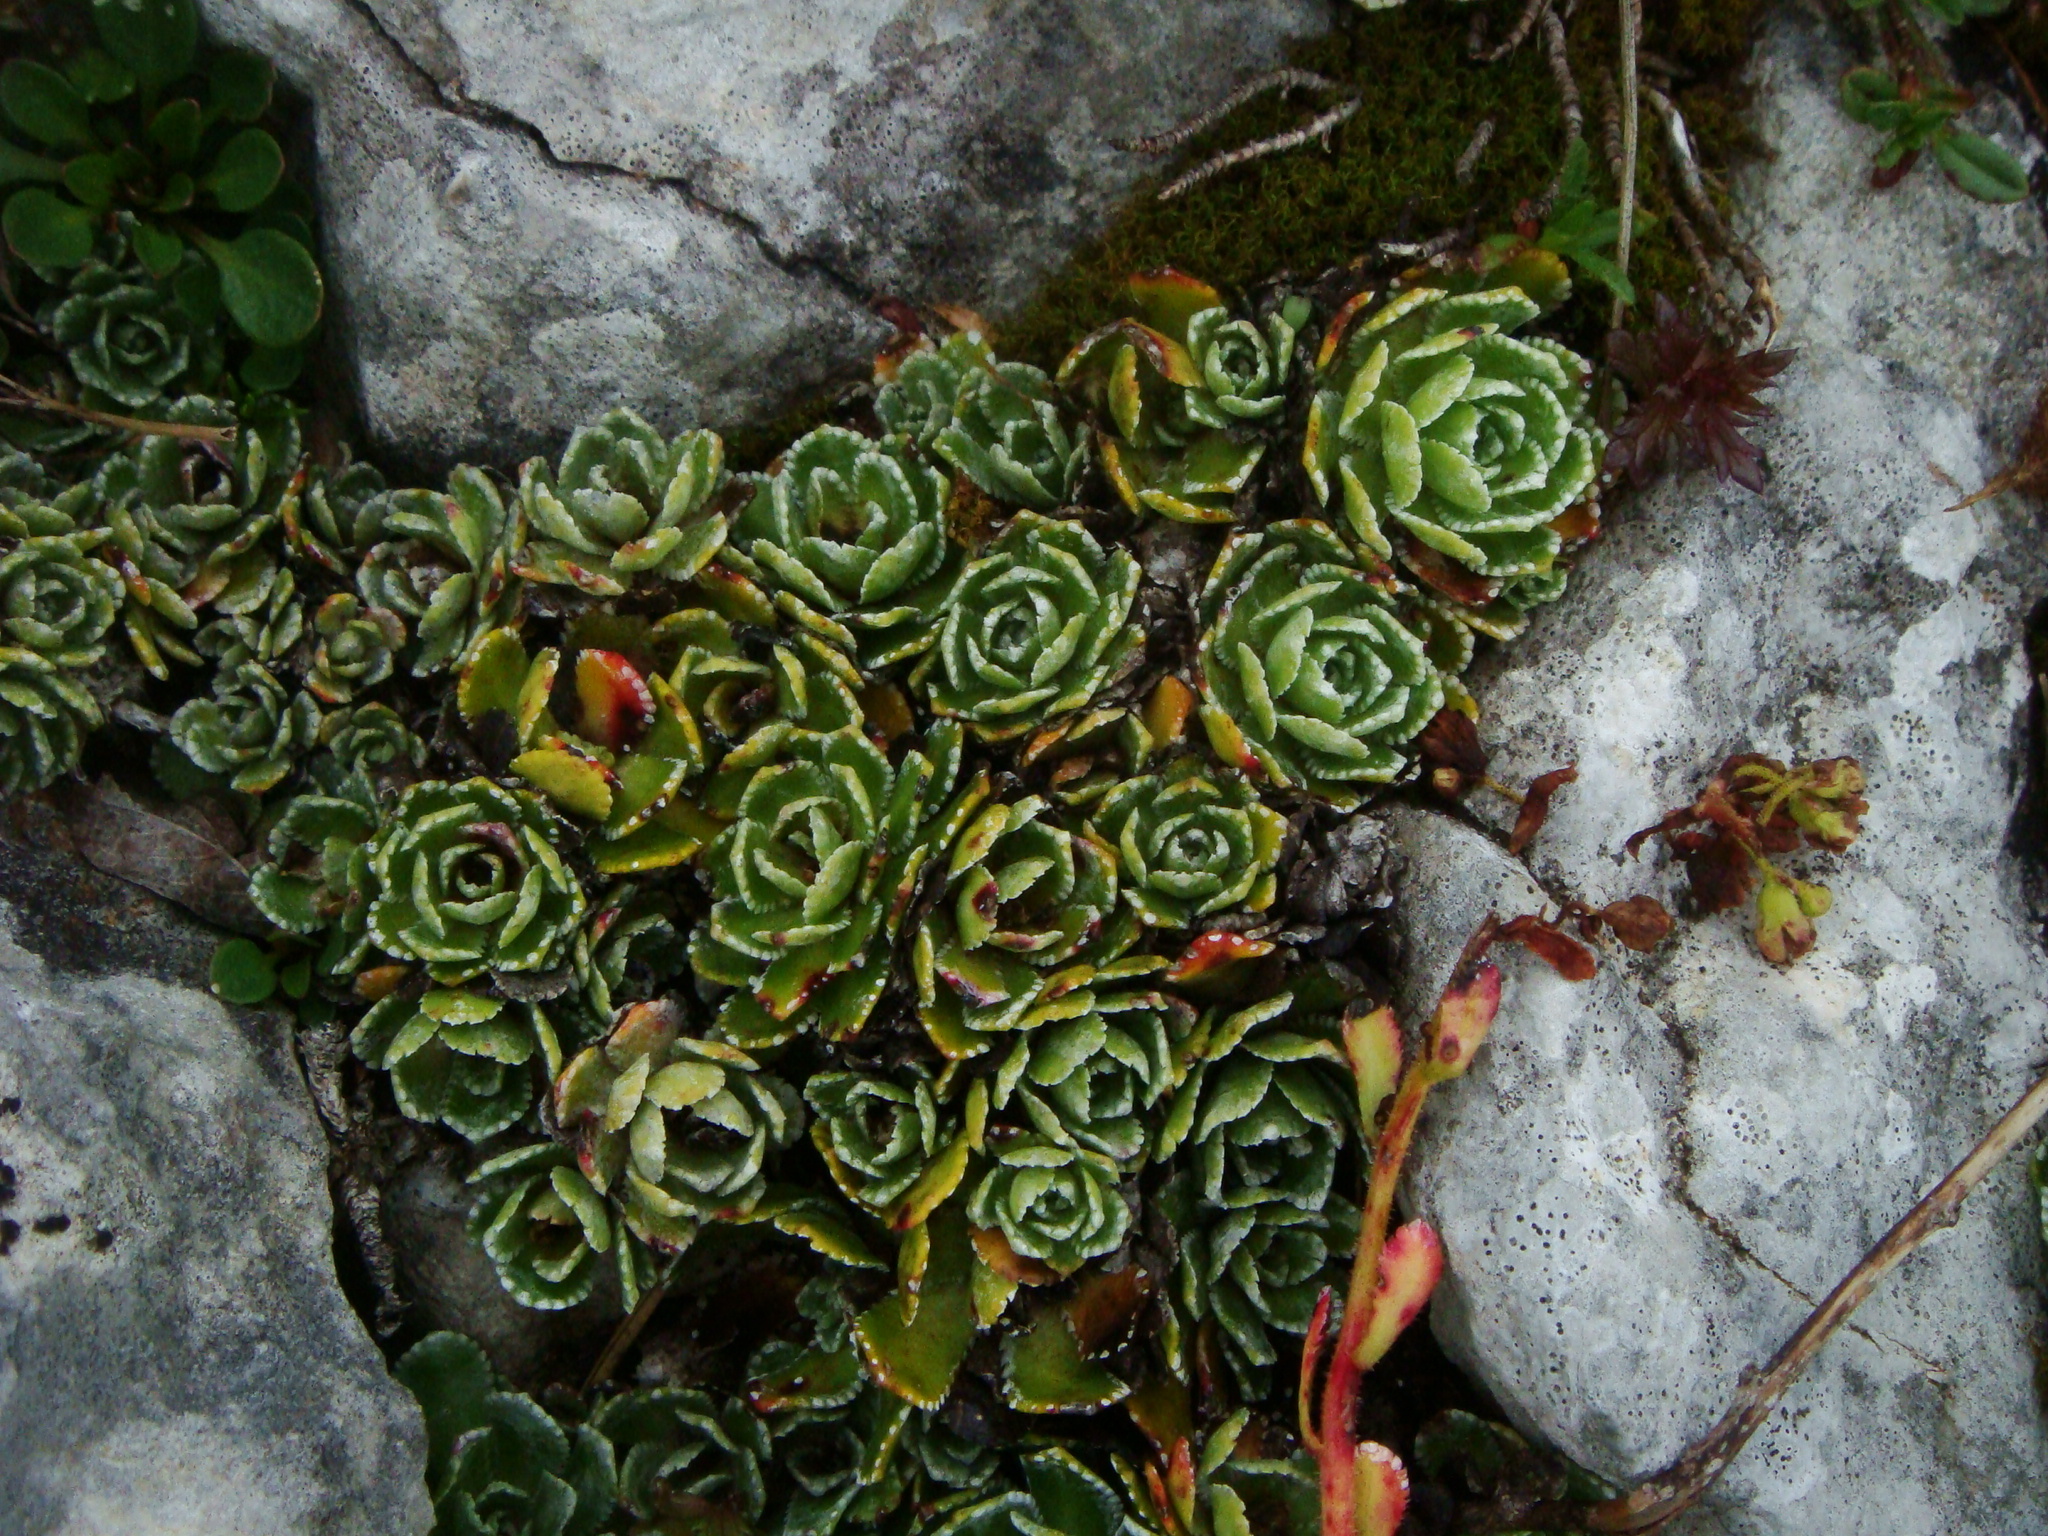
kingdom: Plantae
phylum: Tracheophyta
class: Magnoliopsida
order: Saxifragales
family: Saxifragaceae
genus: Saxifraga
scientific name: Saxifraga paniculata
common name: Livelong saxifrage
